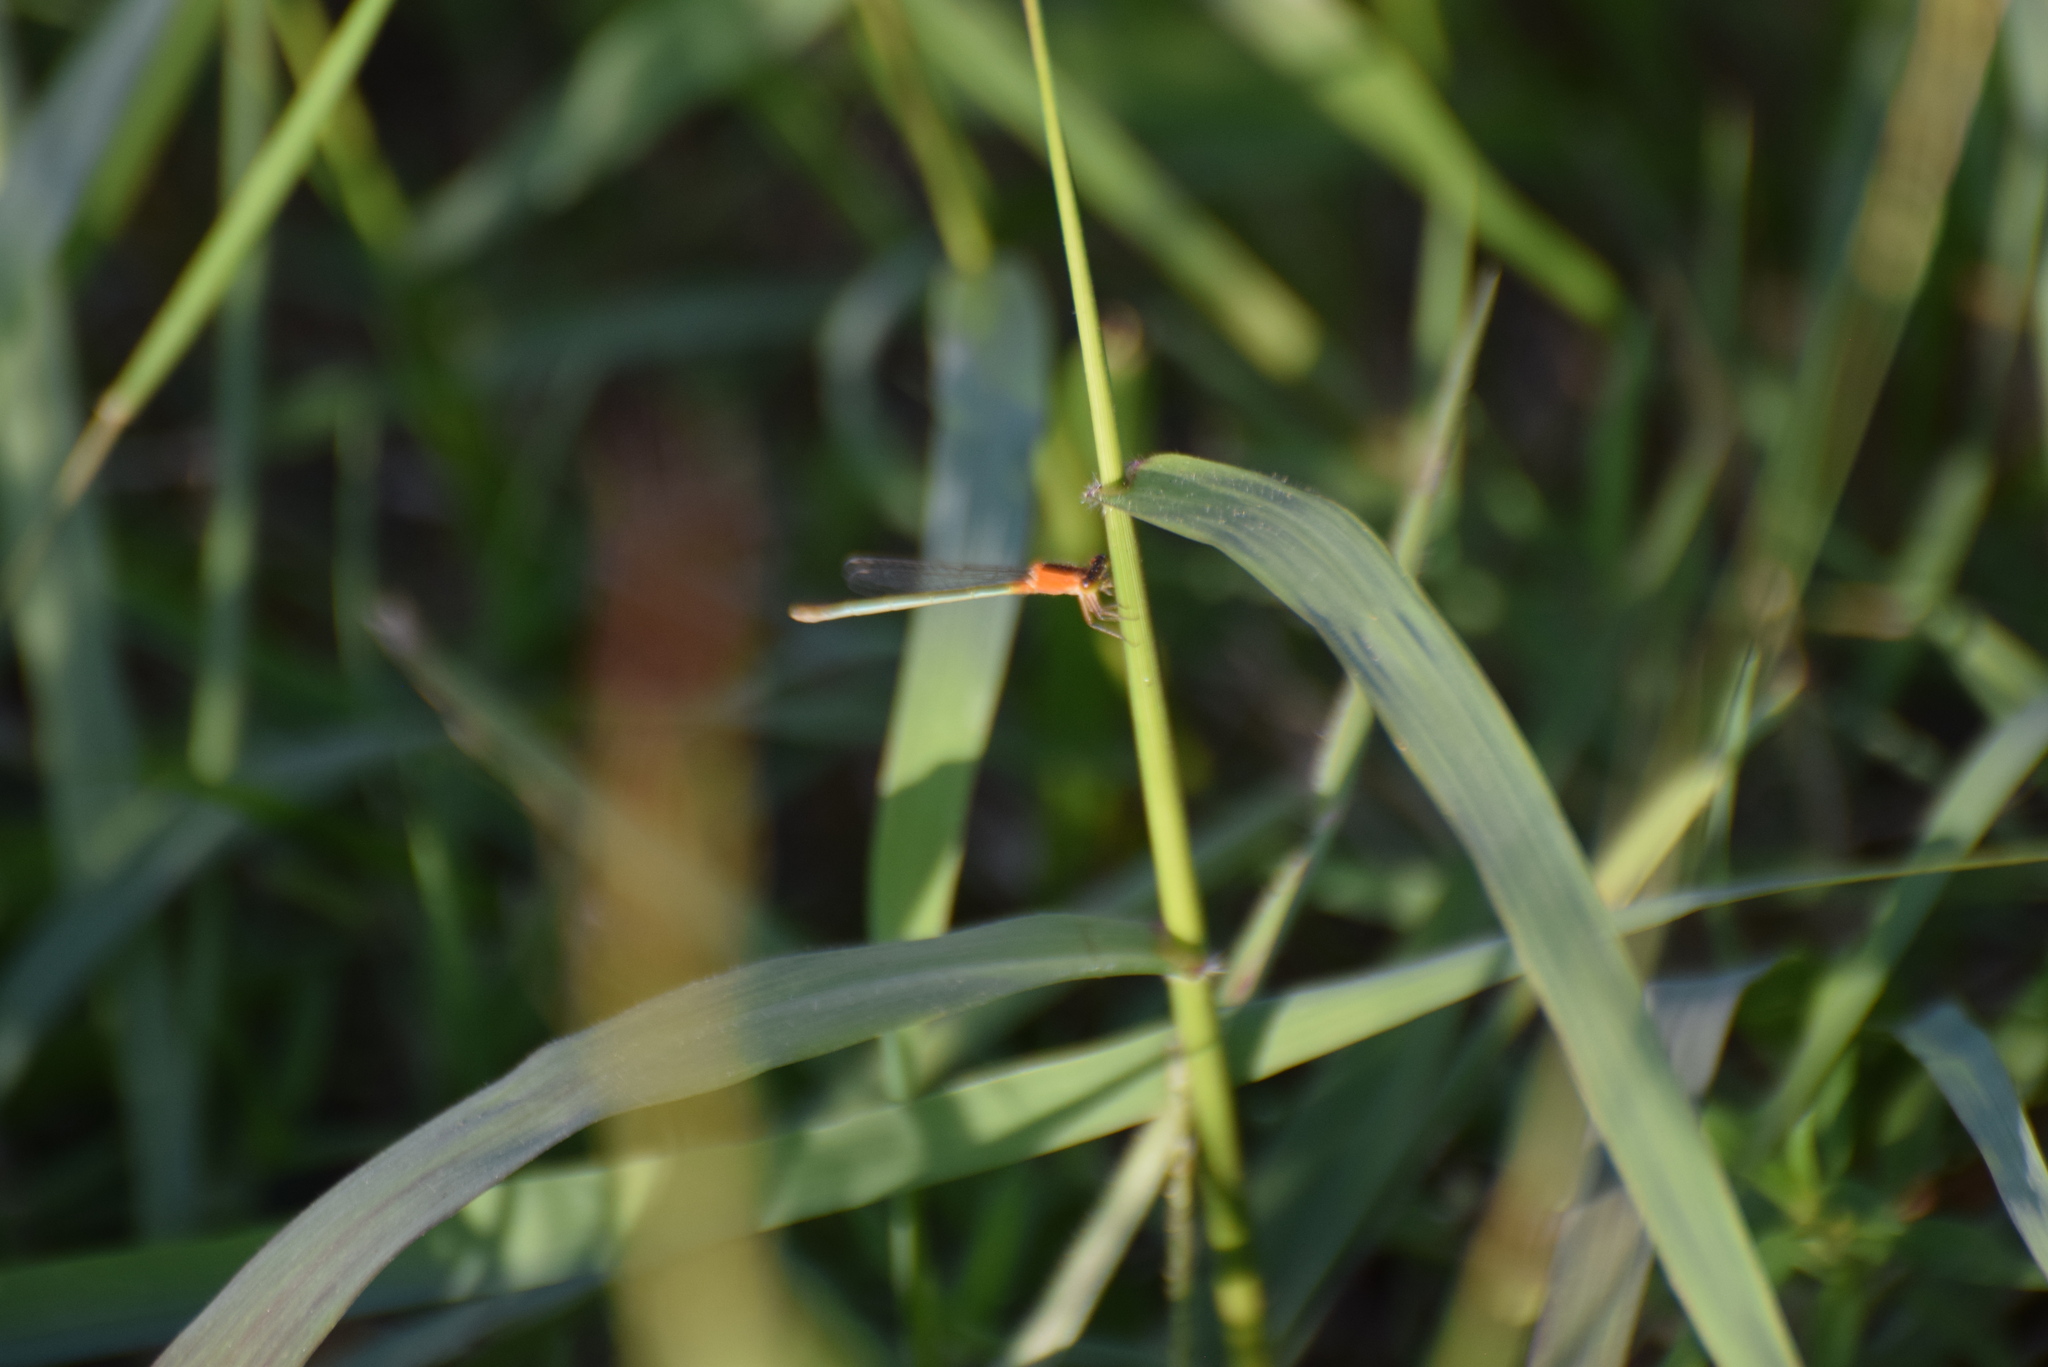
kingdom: Animalia
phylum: Arthropoda
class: Insecta
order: Odonata
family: Coenagrionidae
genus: Ischnura
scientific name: Ischnura ramburii
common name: Rambur's forktail
